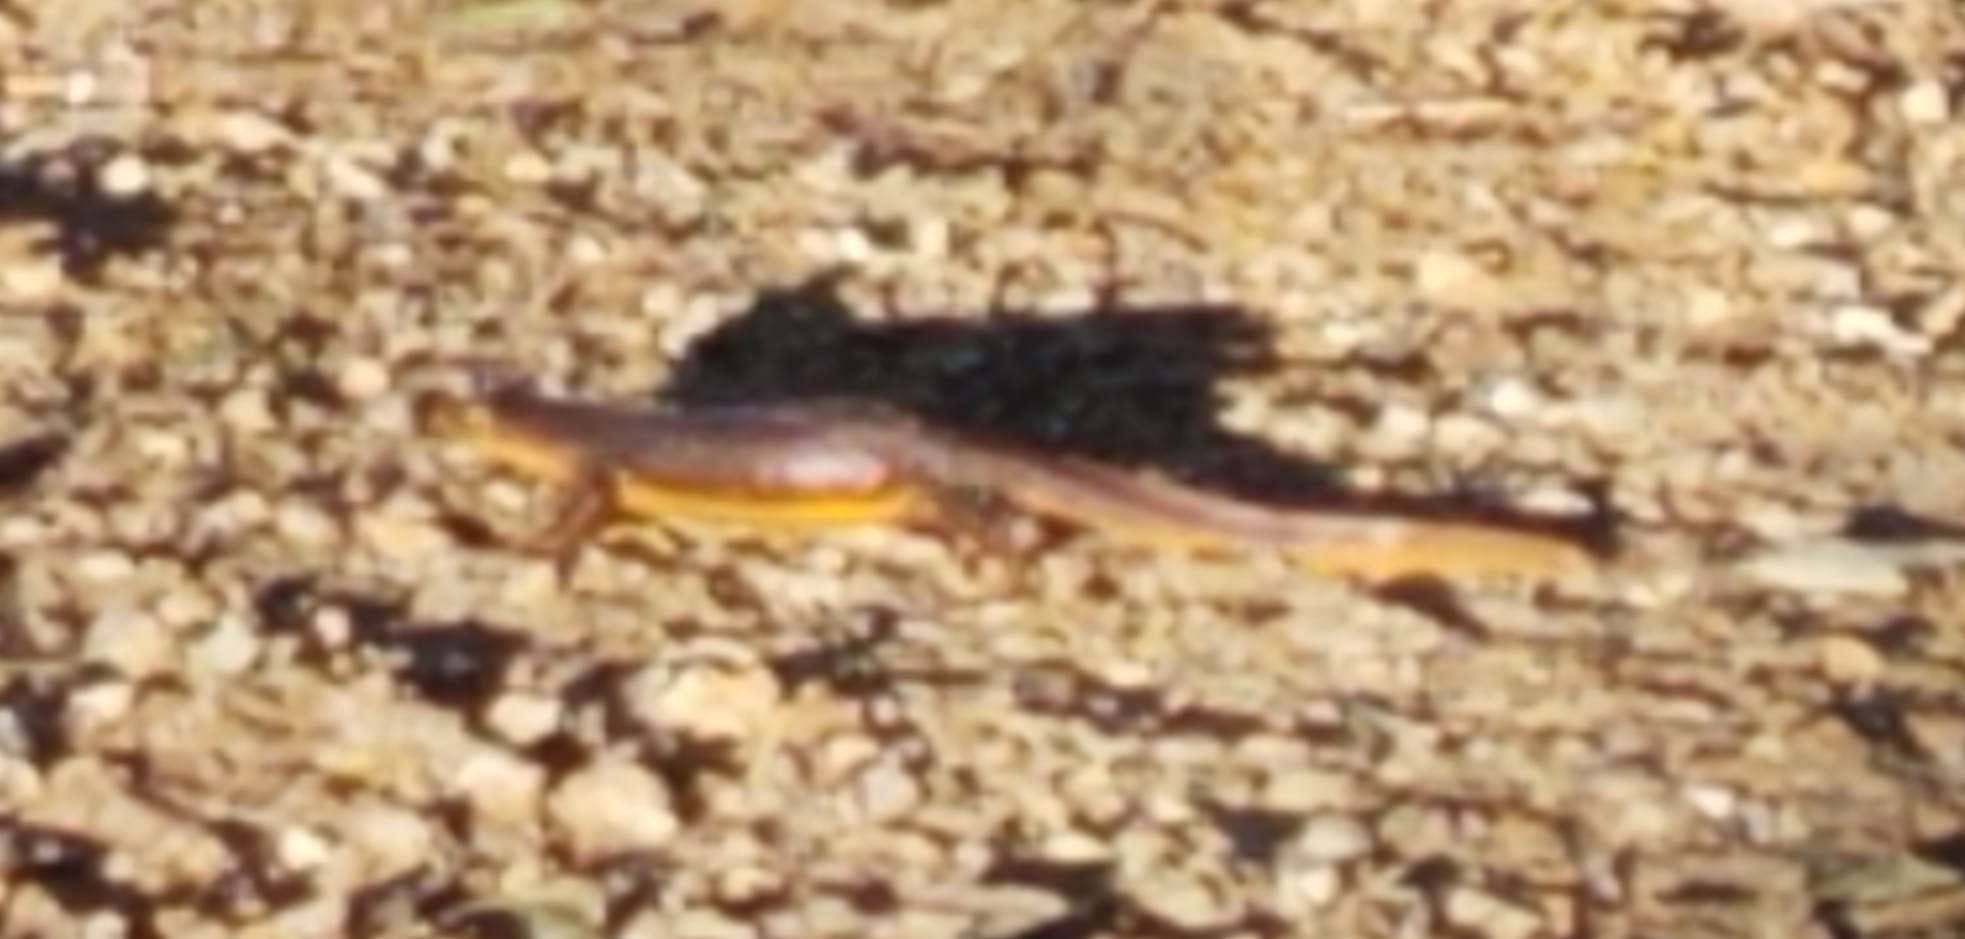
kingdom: Animalia
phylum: Chordata
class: Amphibia
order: Caudata
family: Salamandridae
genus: Taricha
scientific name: Taricha torosa
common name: California newt
